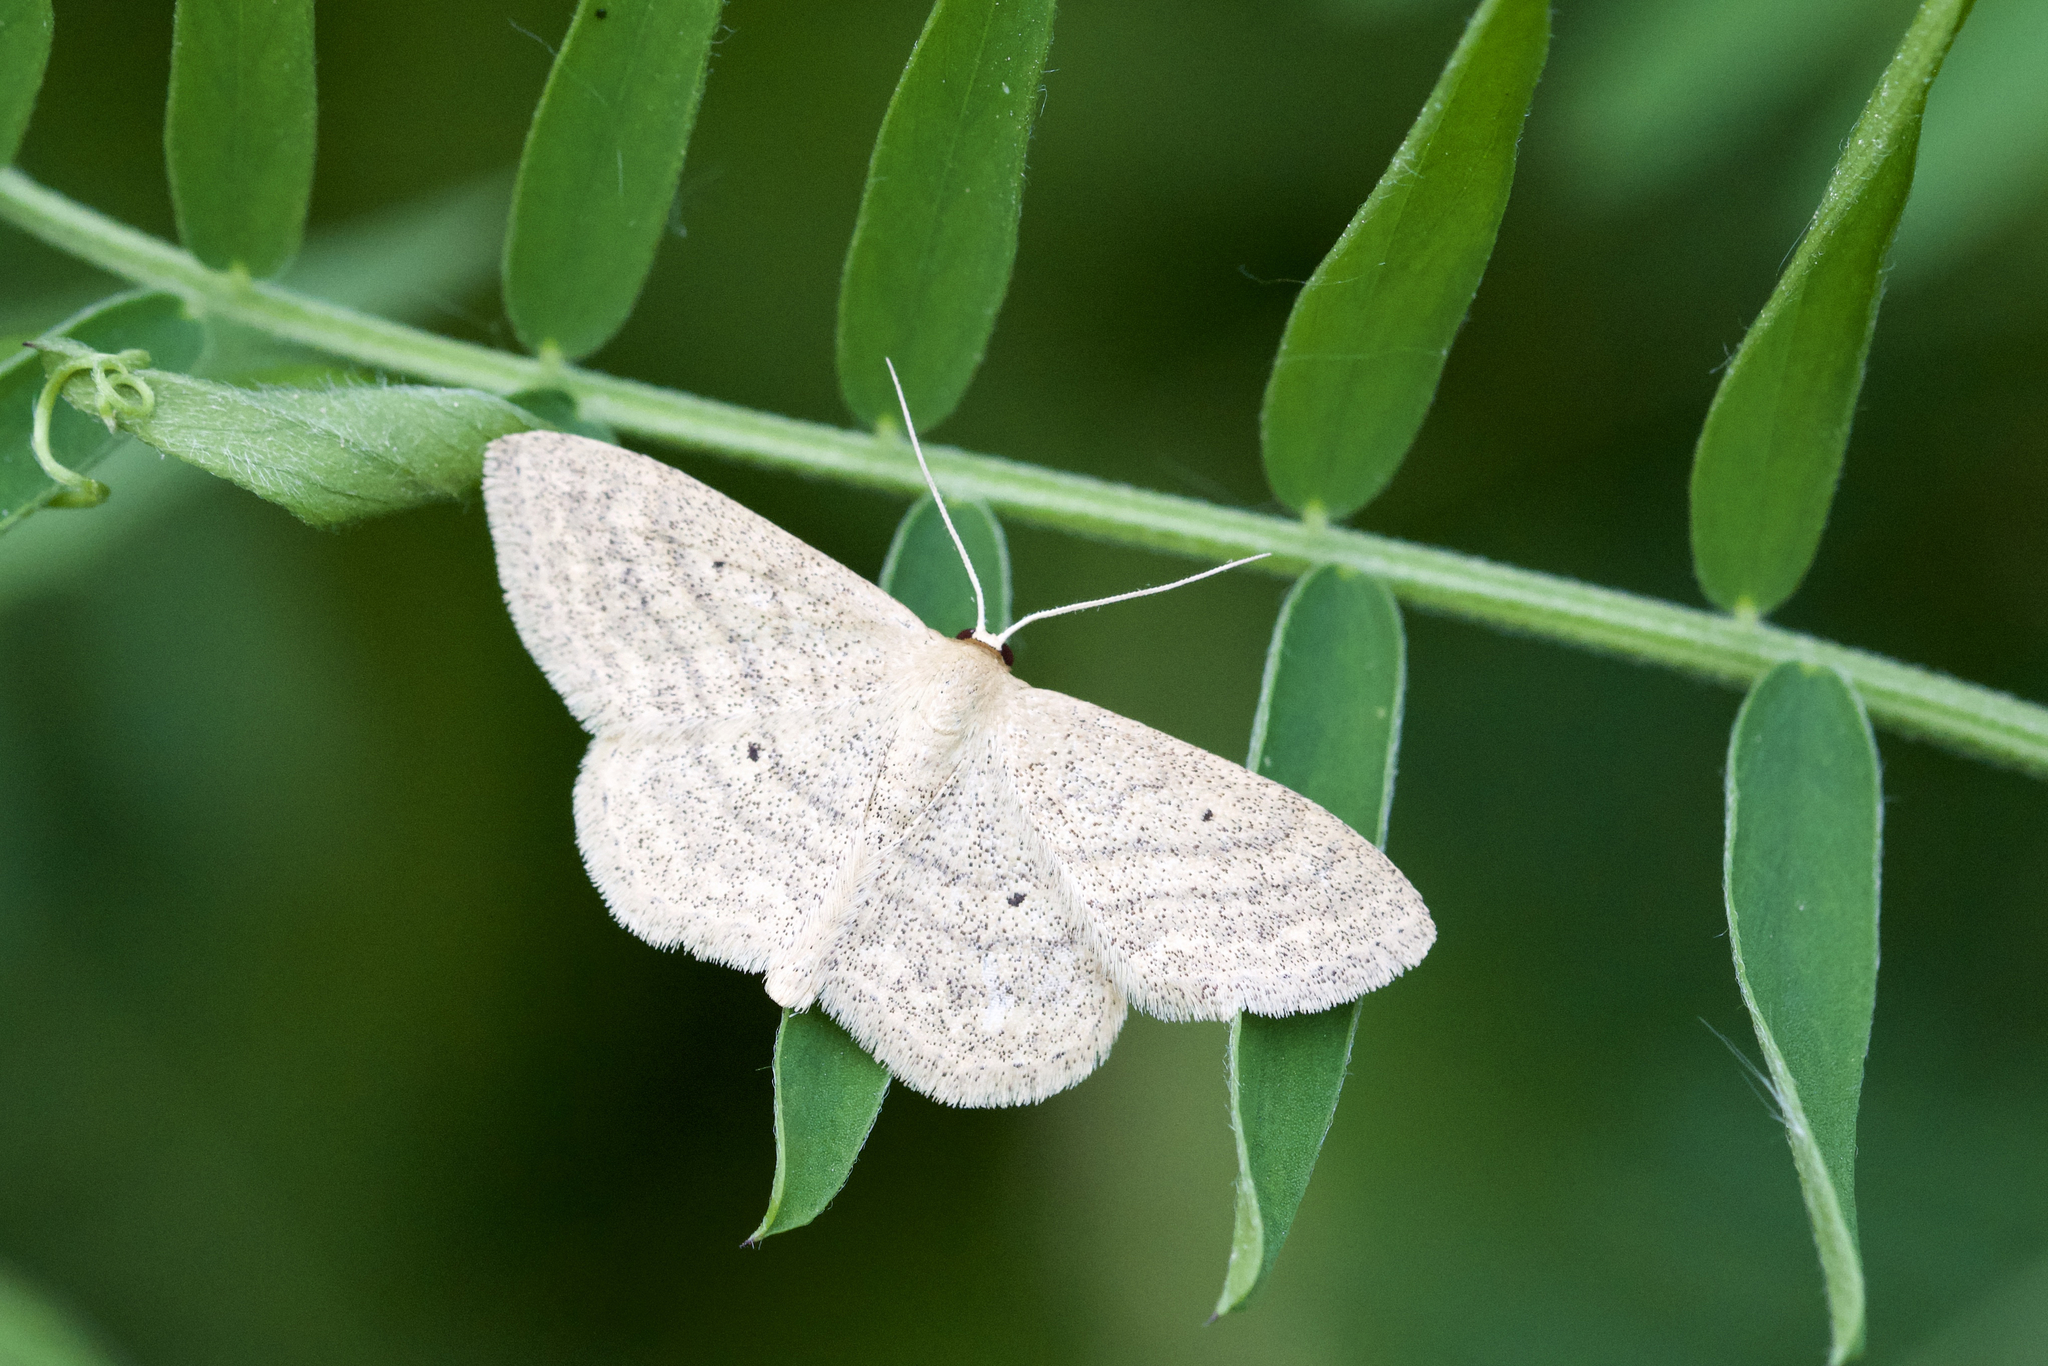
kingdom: Animalia
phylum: Arthropoda
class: Insecta
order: Lepidoptera
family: Geometridae
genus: Scopula
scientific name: Scopula inductata
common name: Soft-lined wave
